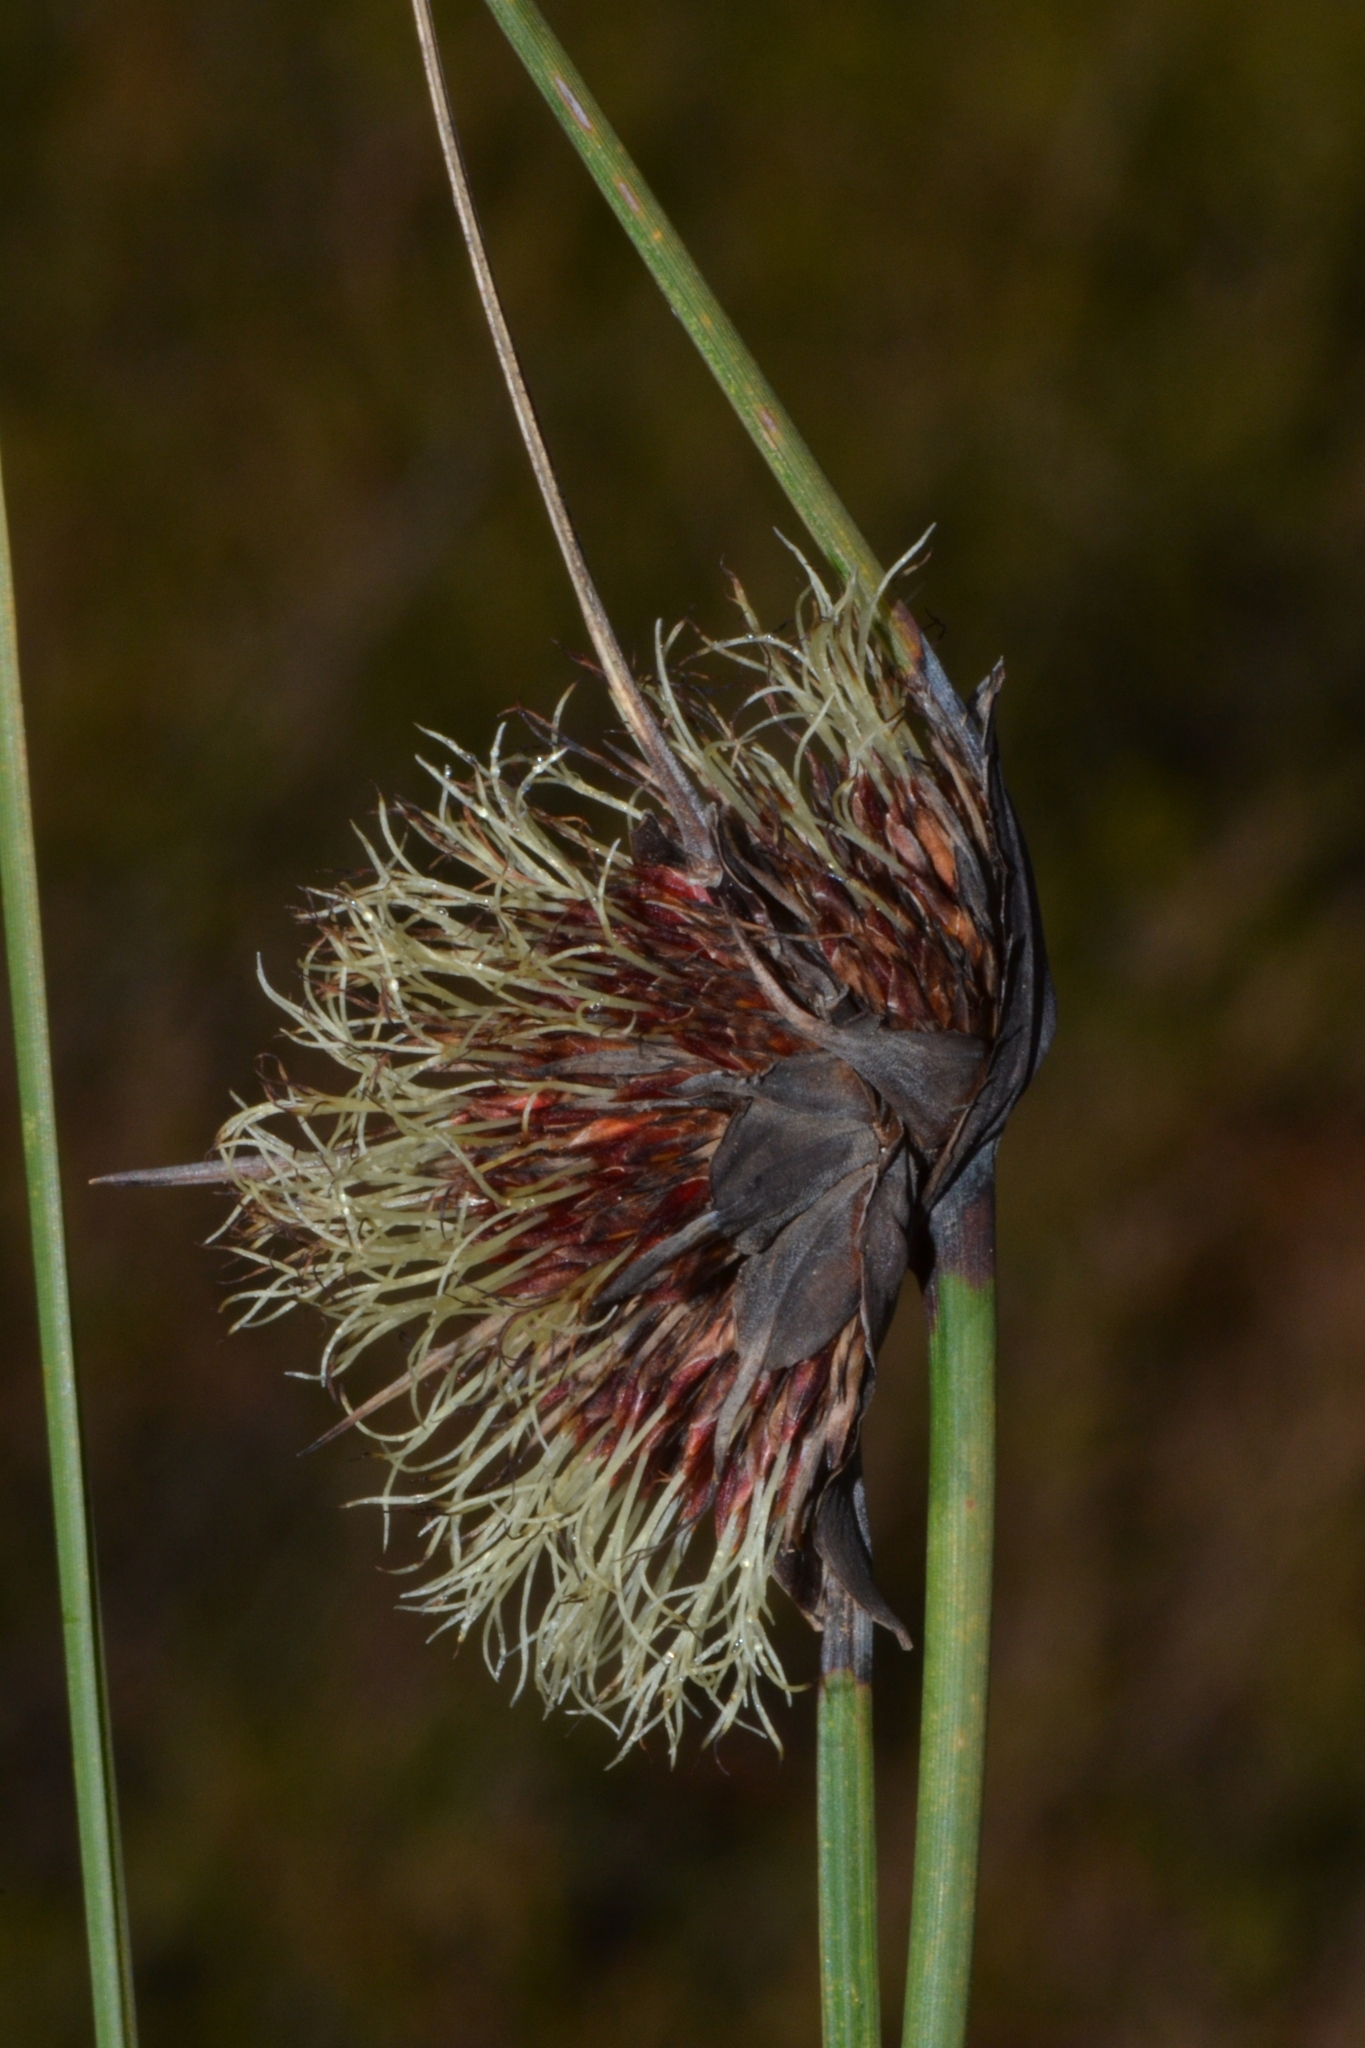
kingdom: Plantae
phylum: Tracheophyta
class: Liliopsida
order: Poales
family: Cyperaceae
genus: Mesomelaena
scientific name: Mesomelaena tetragona
